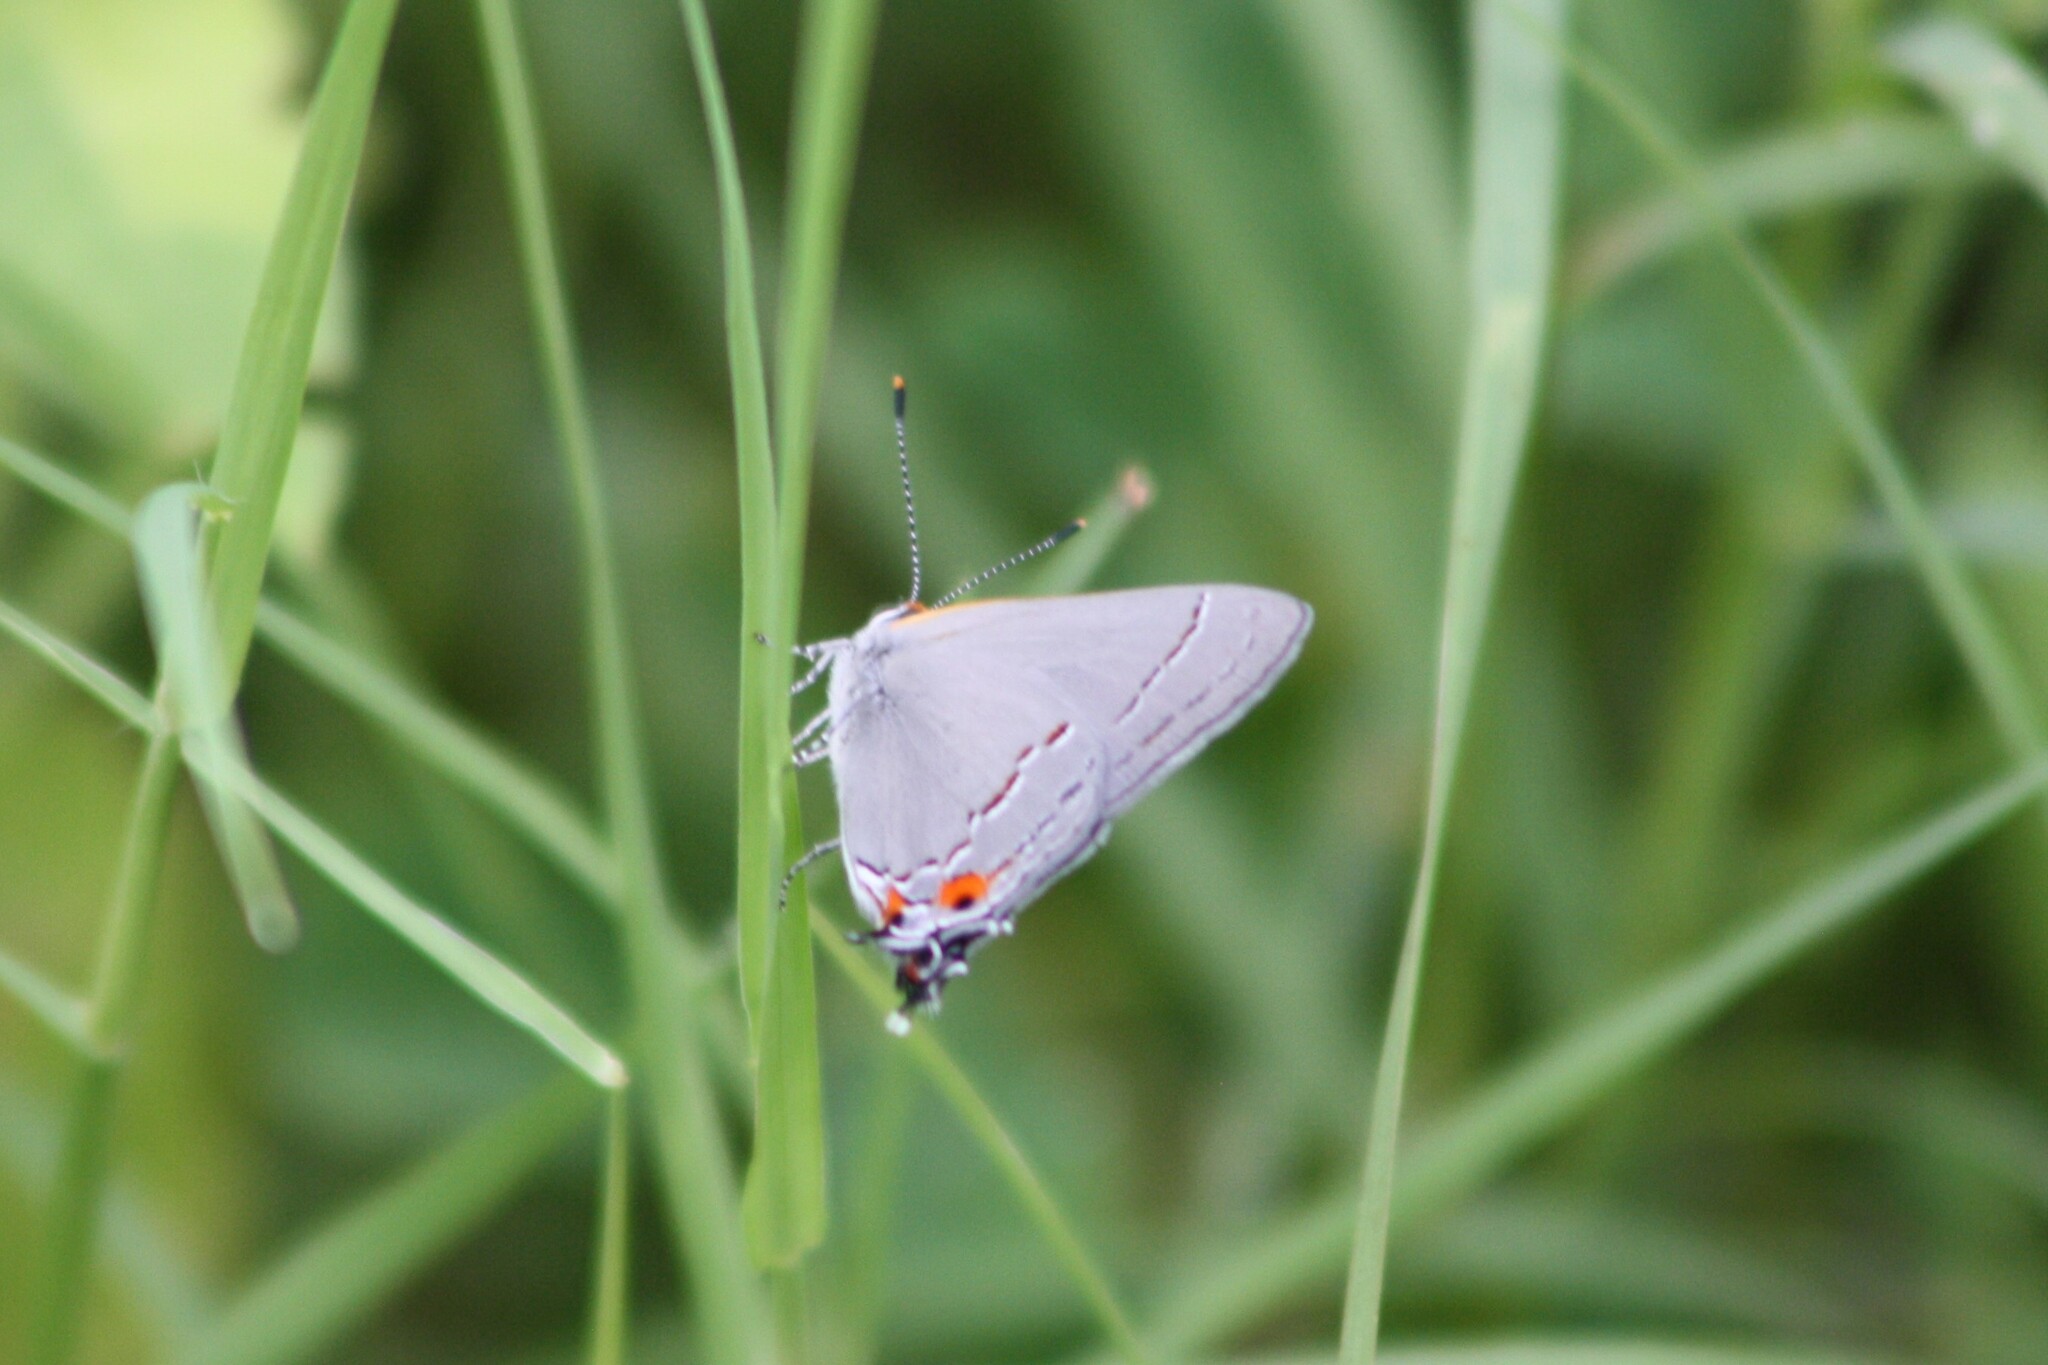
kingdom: Animalia
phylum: Arthropoda
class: Insecta
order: Lepidoptera
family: Lycaenidae
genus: Strymon
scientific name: Strymon melinus
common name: Gray hairstreak
